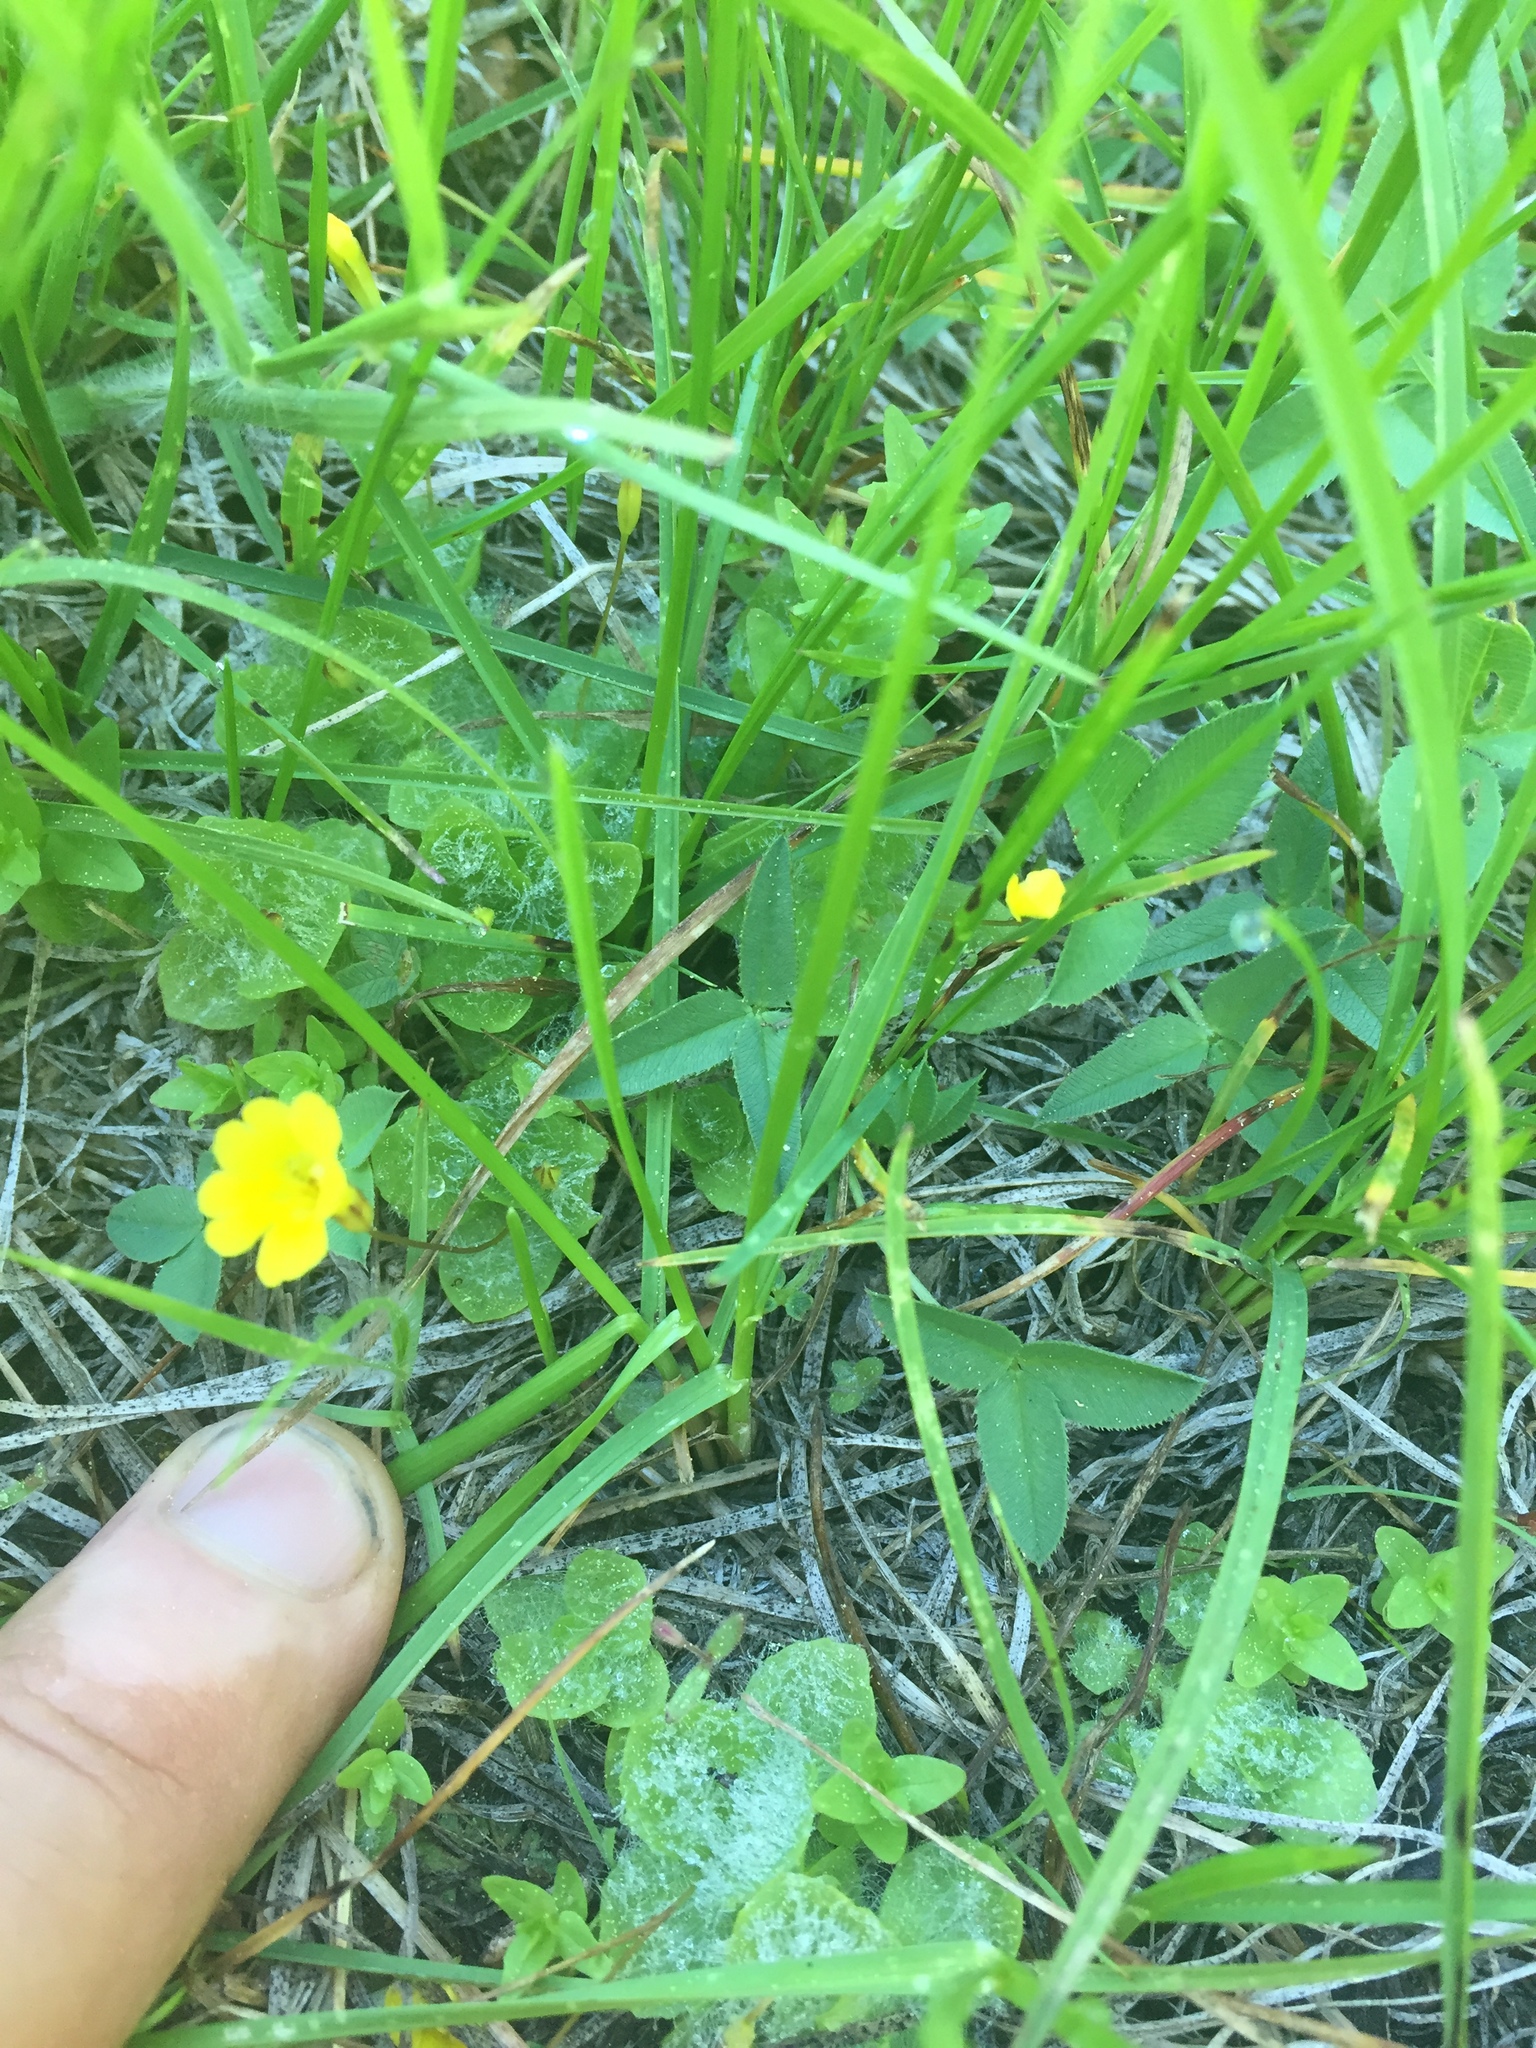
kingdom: Plantae
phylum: Tracheophyta
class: Magnoliopsida
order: Lamiales
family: Phrymaceae
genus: Erythranthe
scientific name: Erythranthe primuloides
